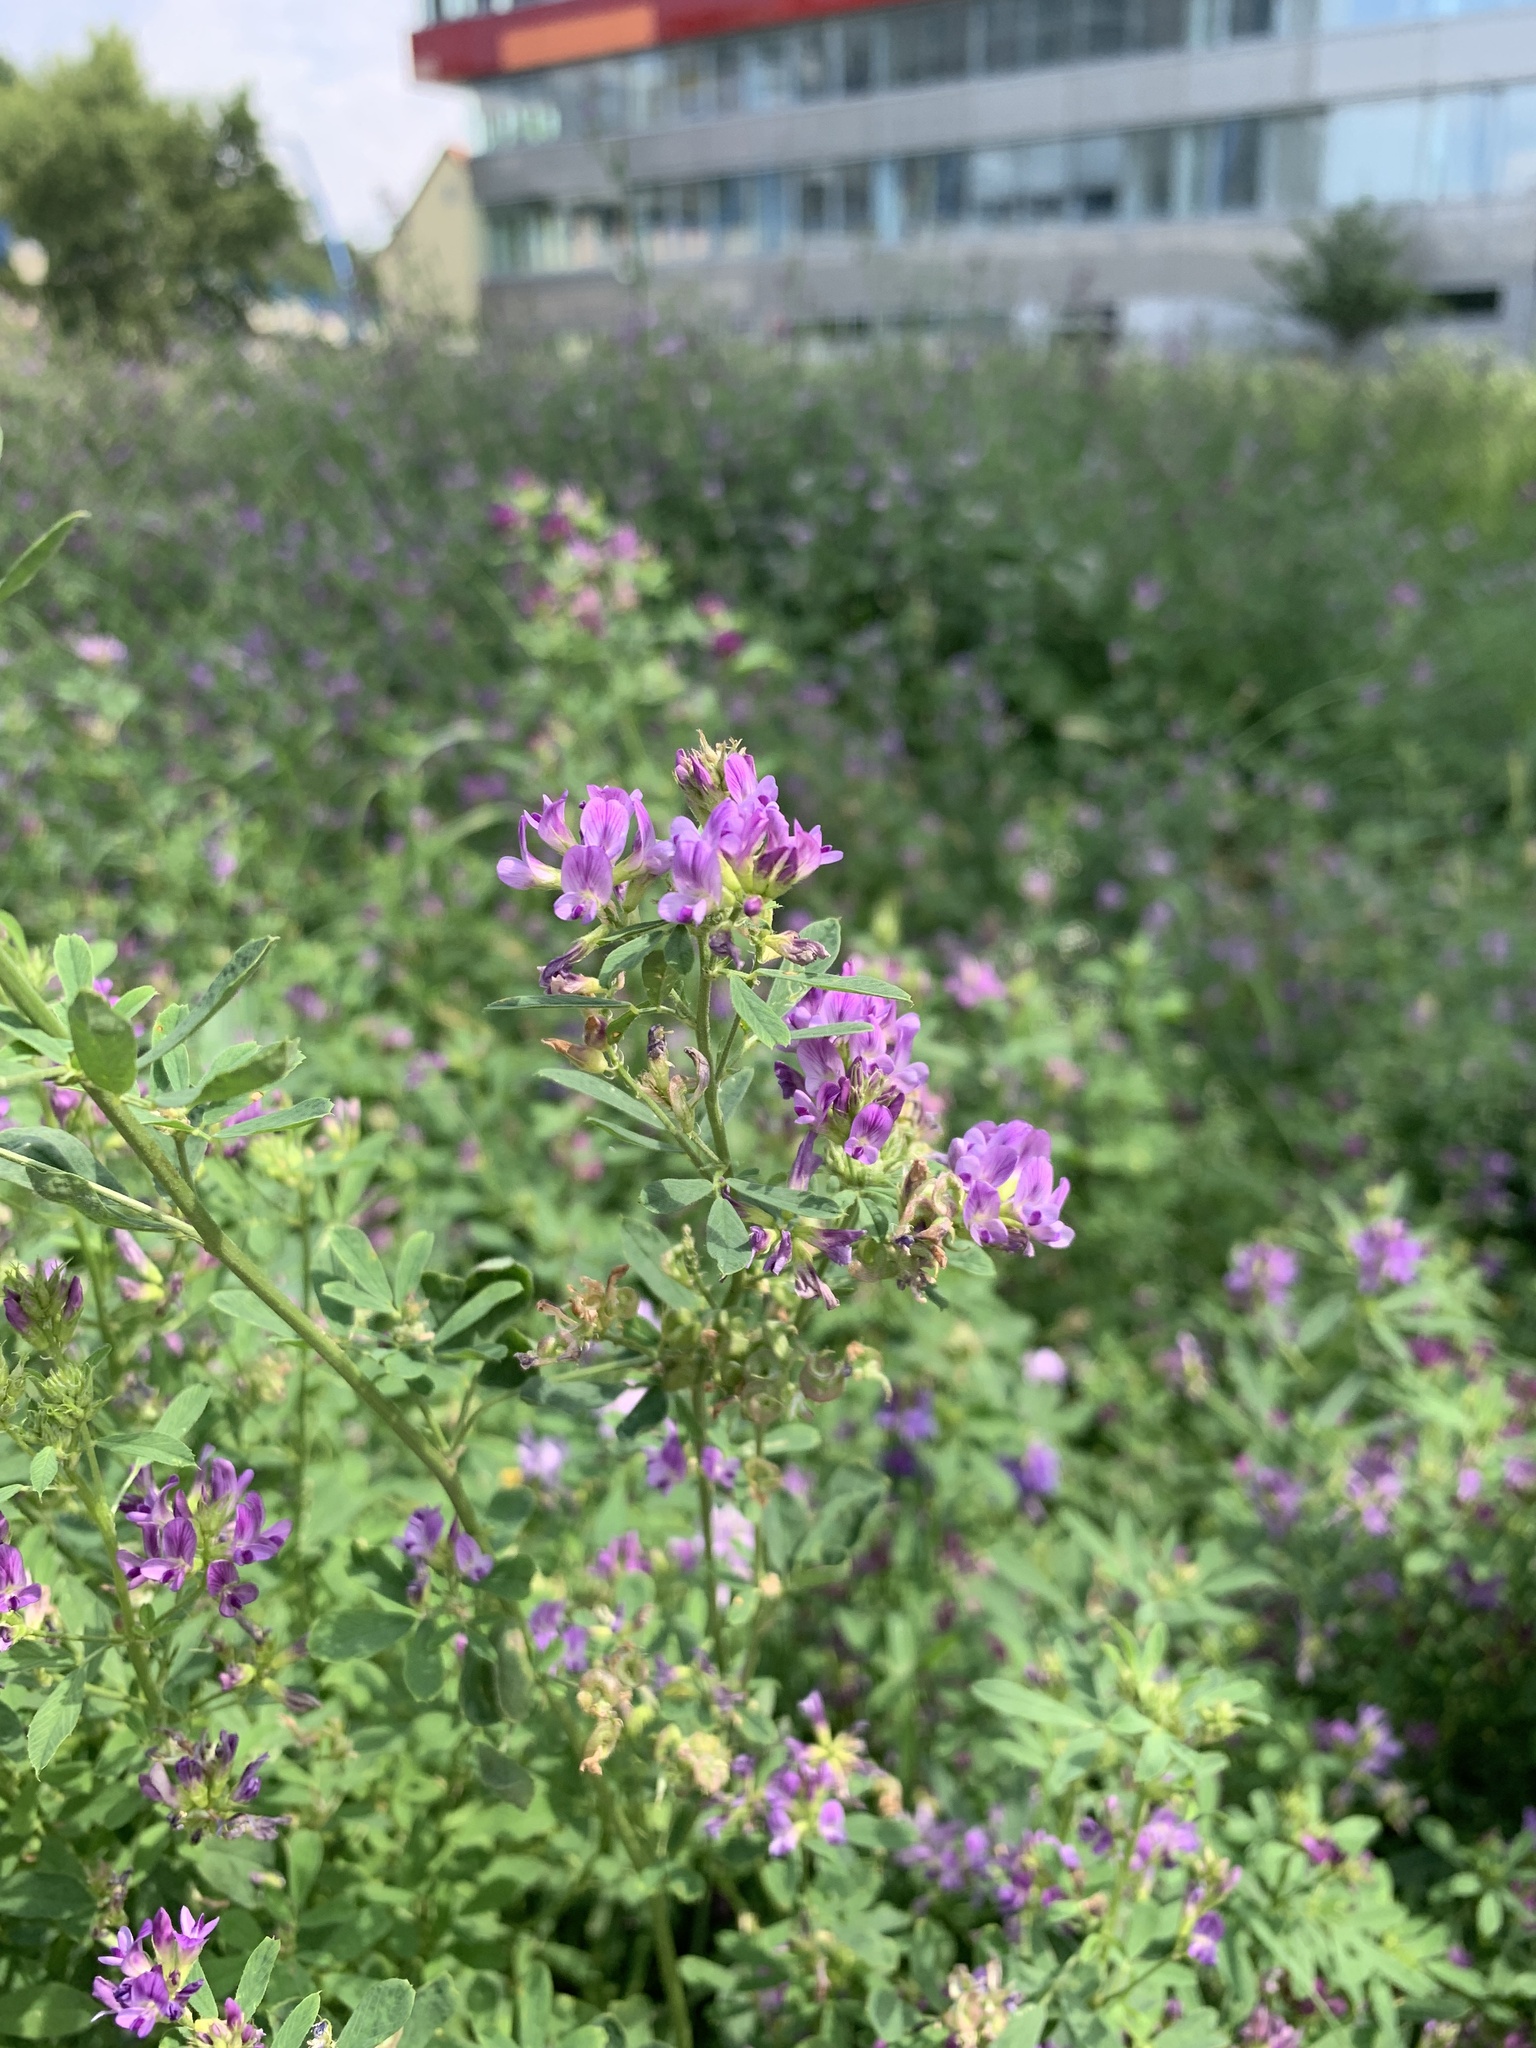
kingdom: Plantae
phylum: Tracheophyta
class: Magnoliopsida
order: Fabales
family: Fabaceae
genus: Medicago
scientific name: Medicago sativa
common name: Alfalfa
